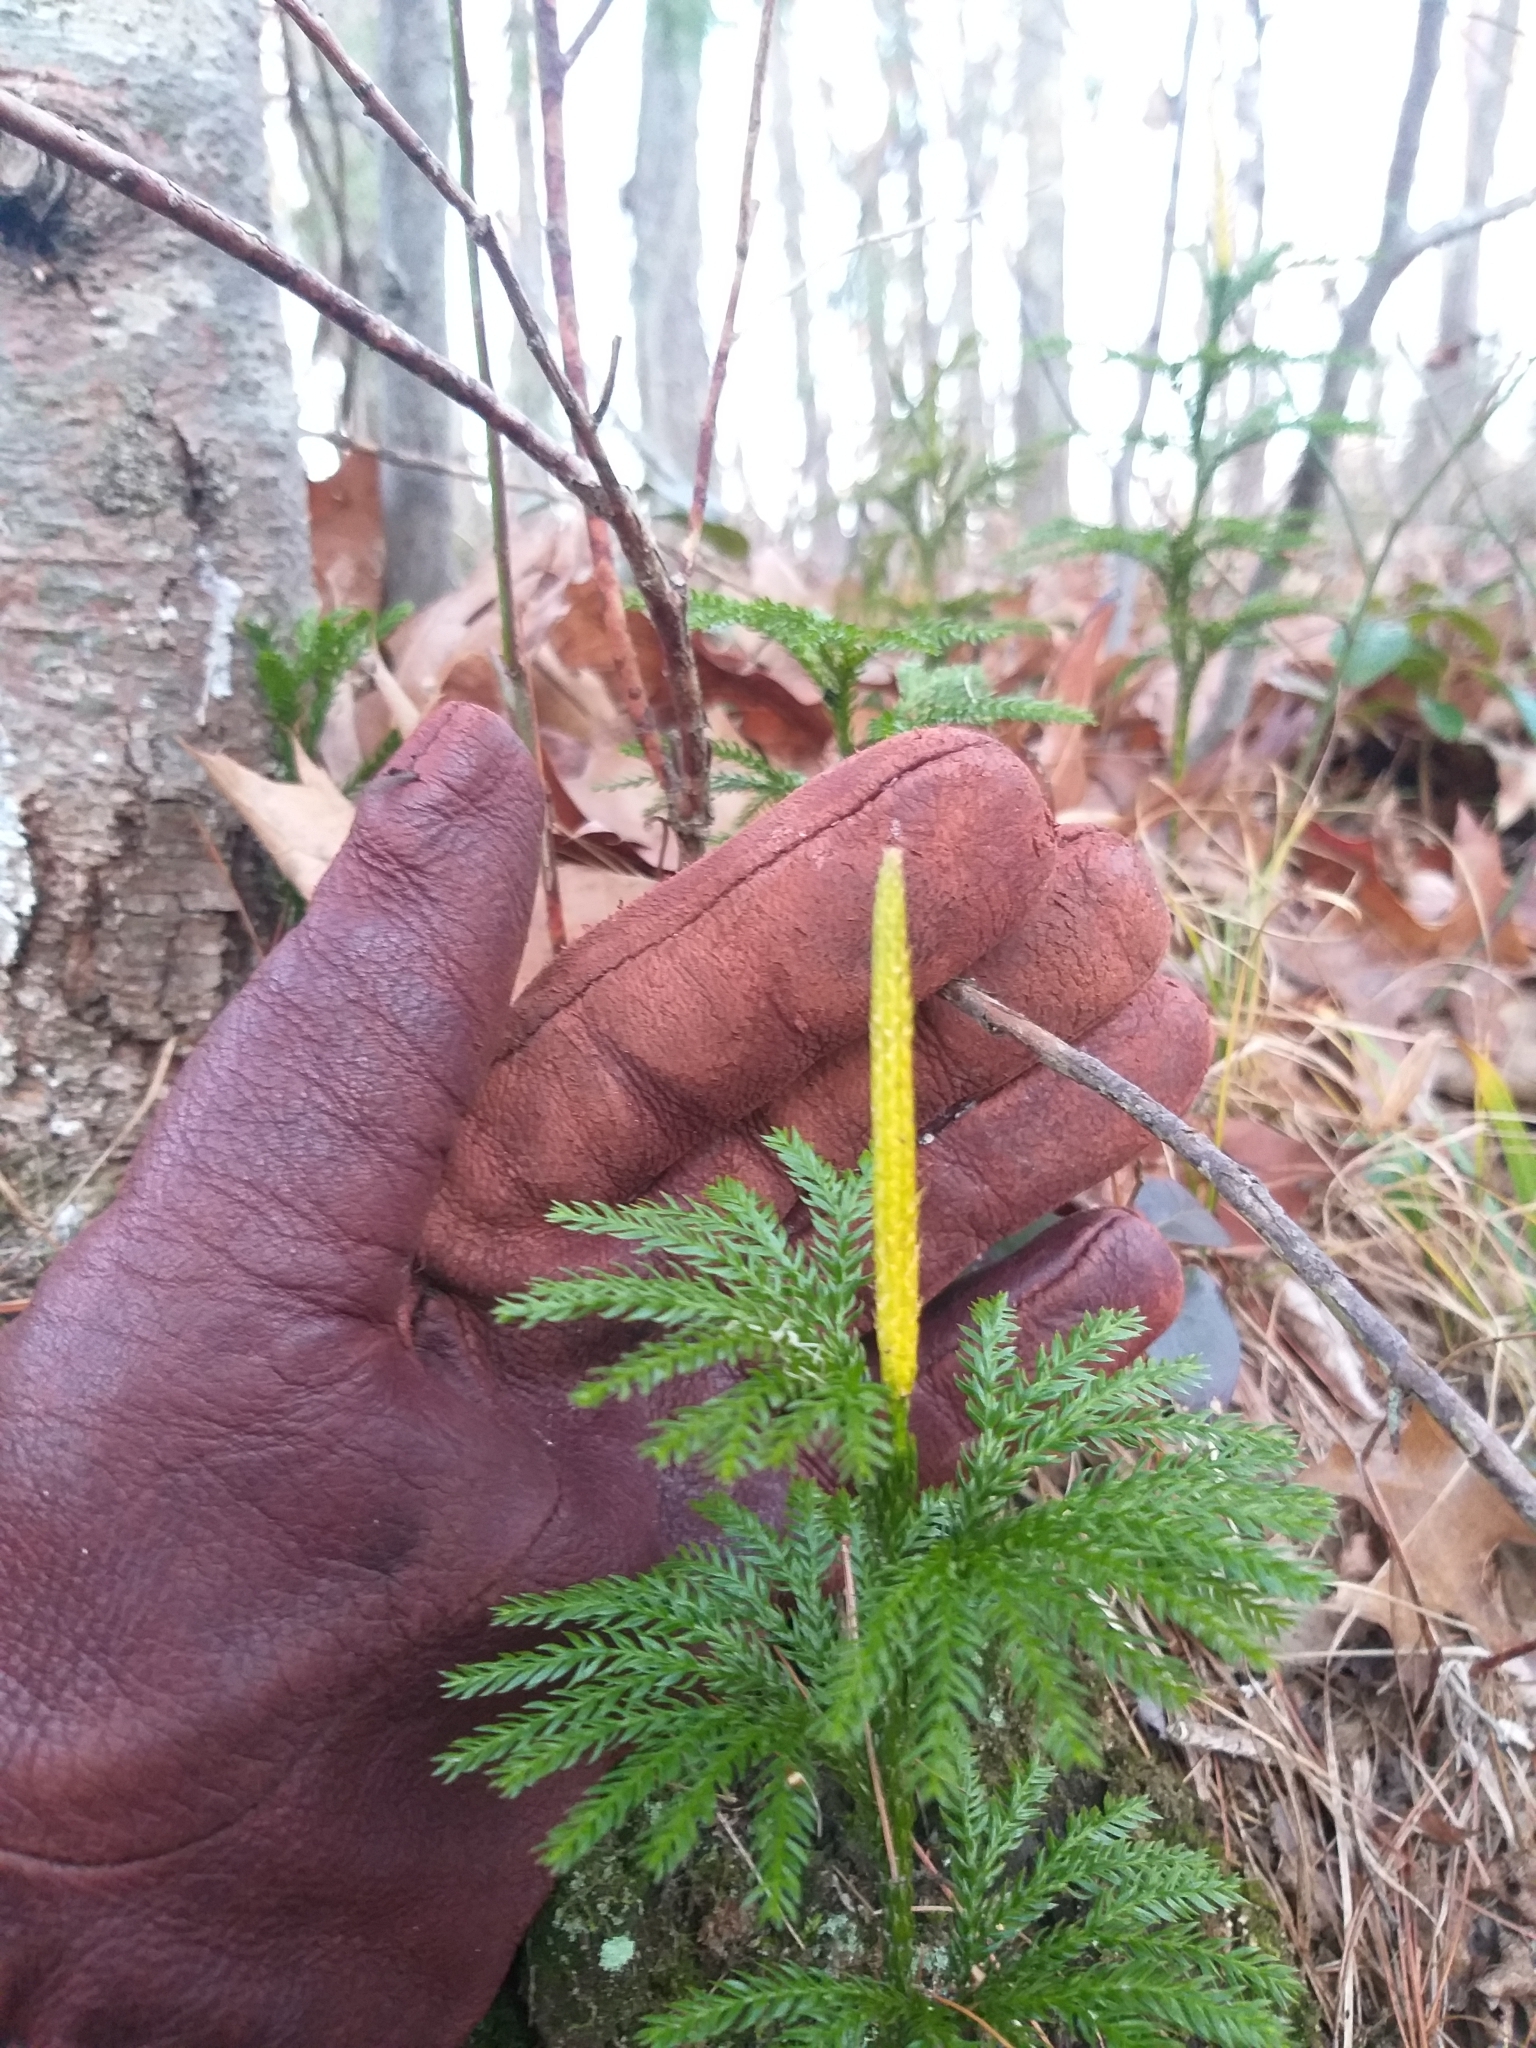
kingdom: Plantae
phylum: Tracheophyta
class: Lycopodiopsida
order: Lycopodiales
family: Lycopodiaceae
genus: Dendrolycopodium
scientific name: Dendrolycopodium obscurum
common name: Common ground-pine
